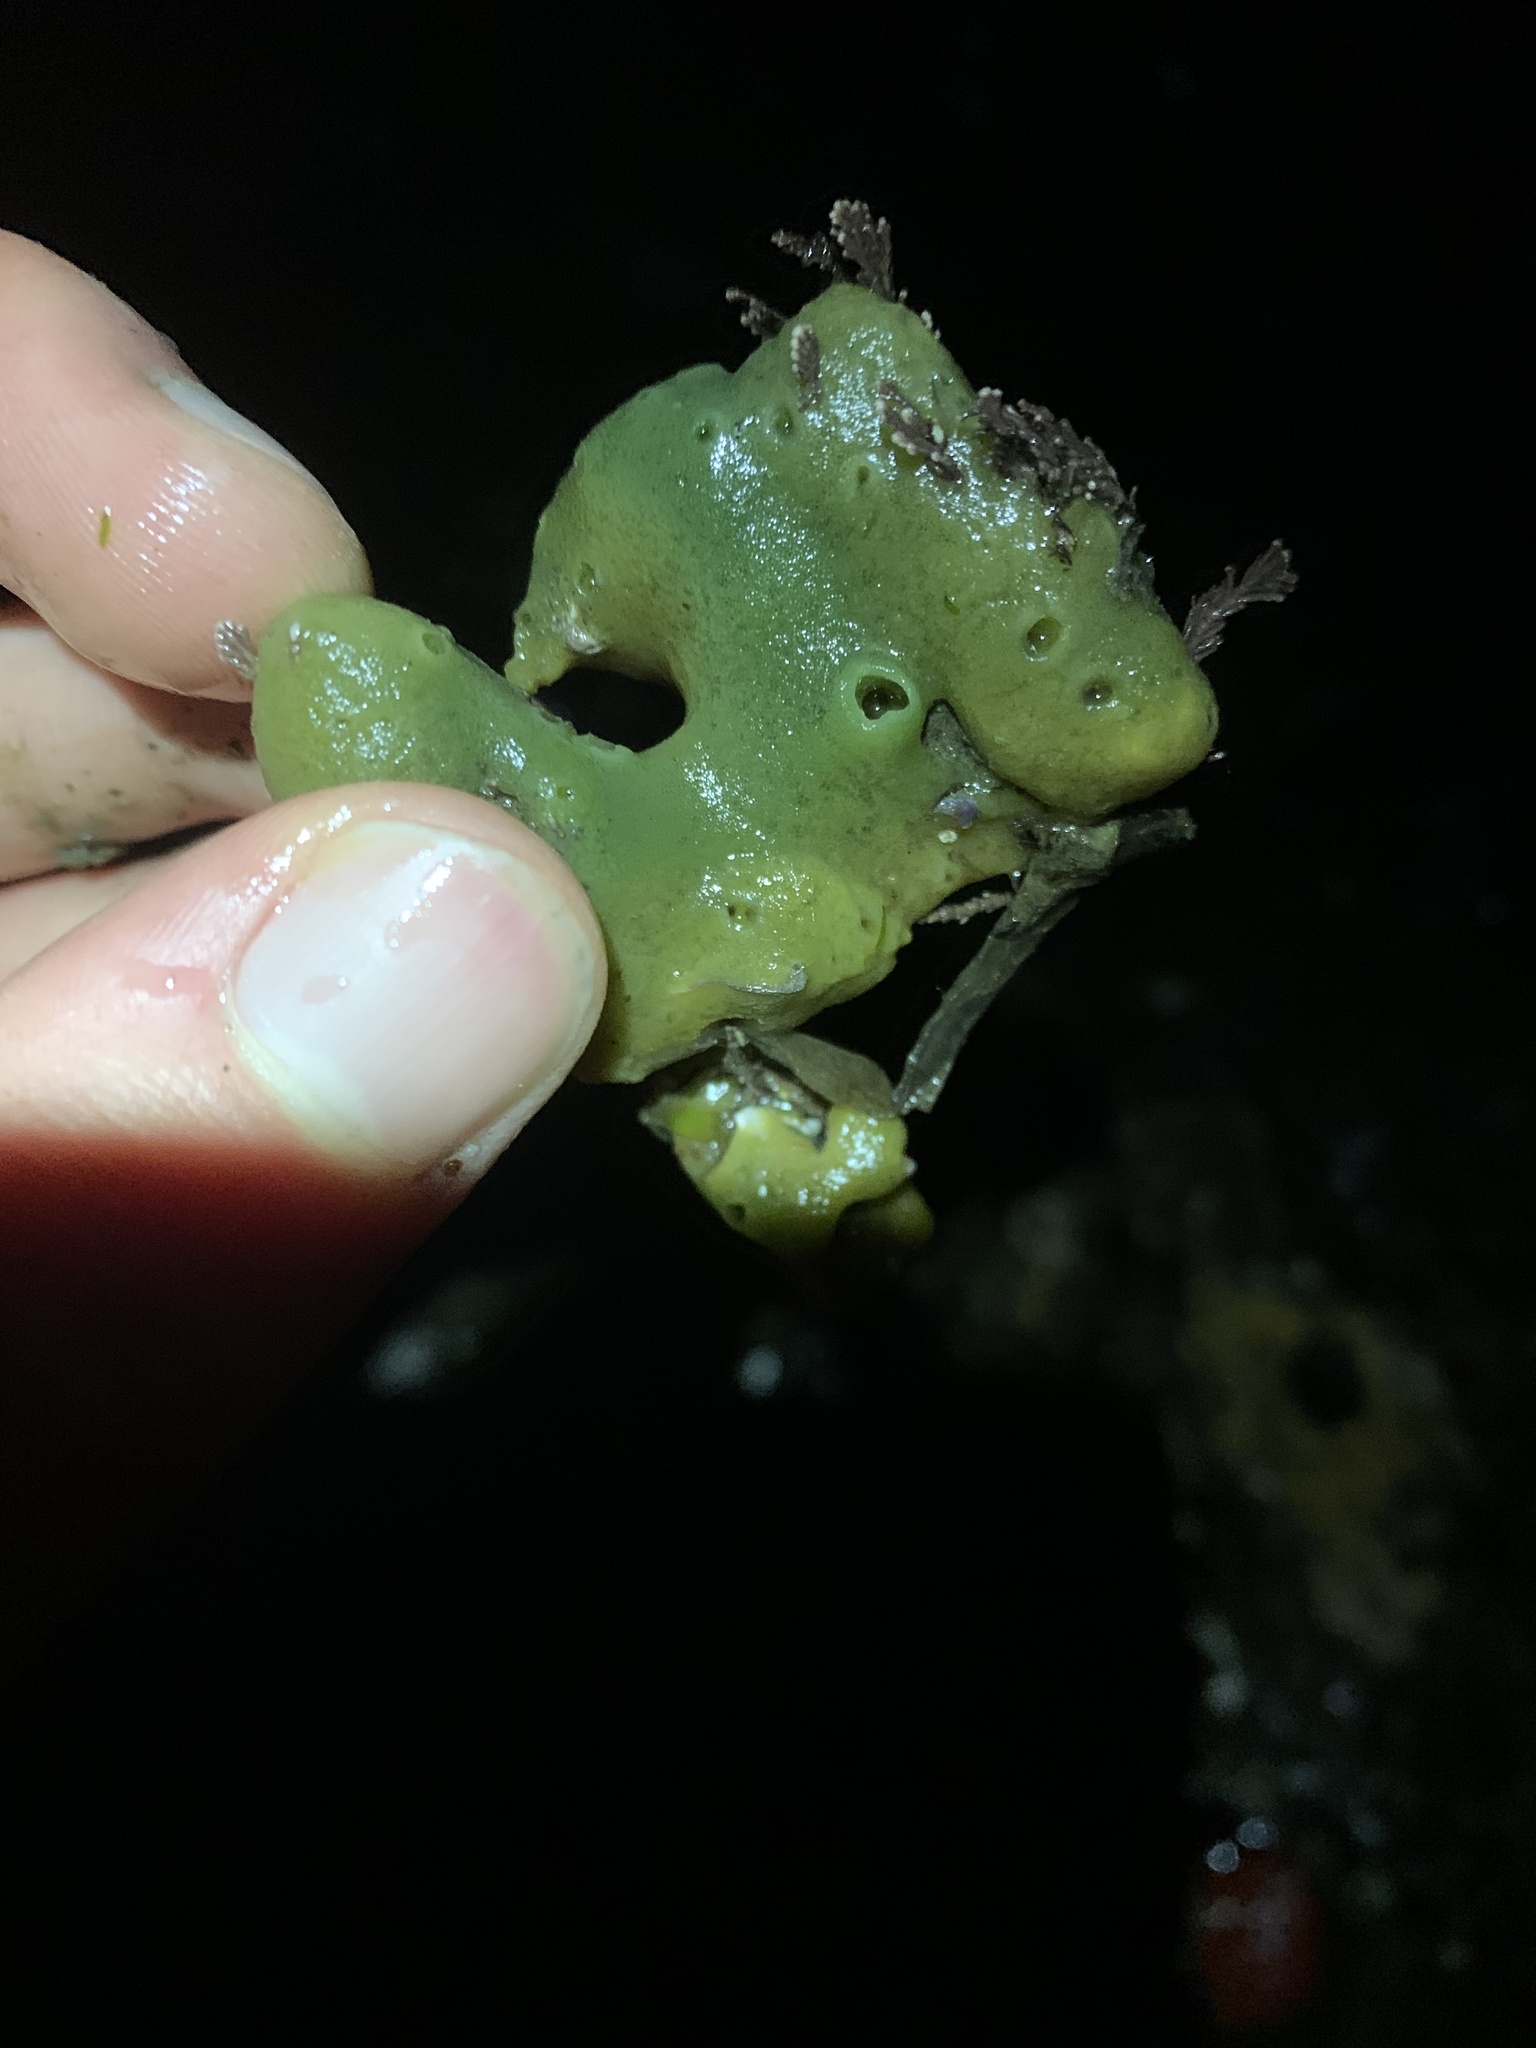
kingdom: Animalia
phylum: Porifera
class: Demospongiae
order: Suberitida
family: Halichondriidae
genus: Halichondria
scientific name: Halichondria panicea
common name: Breadcrumb sponge
